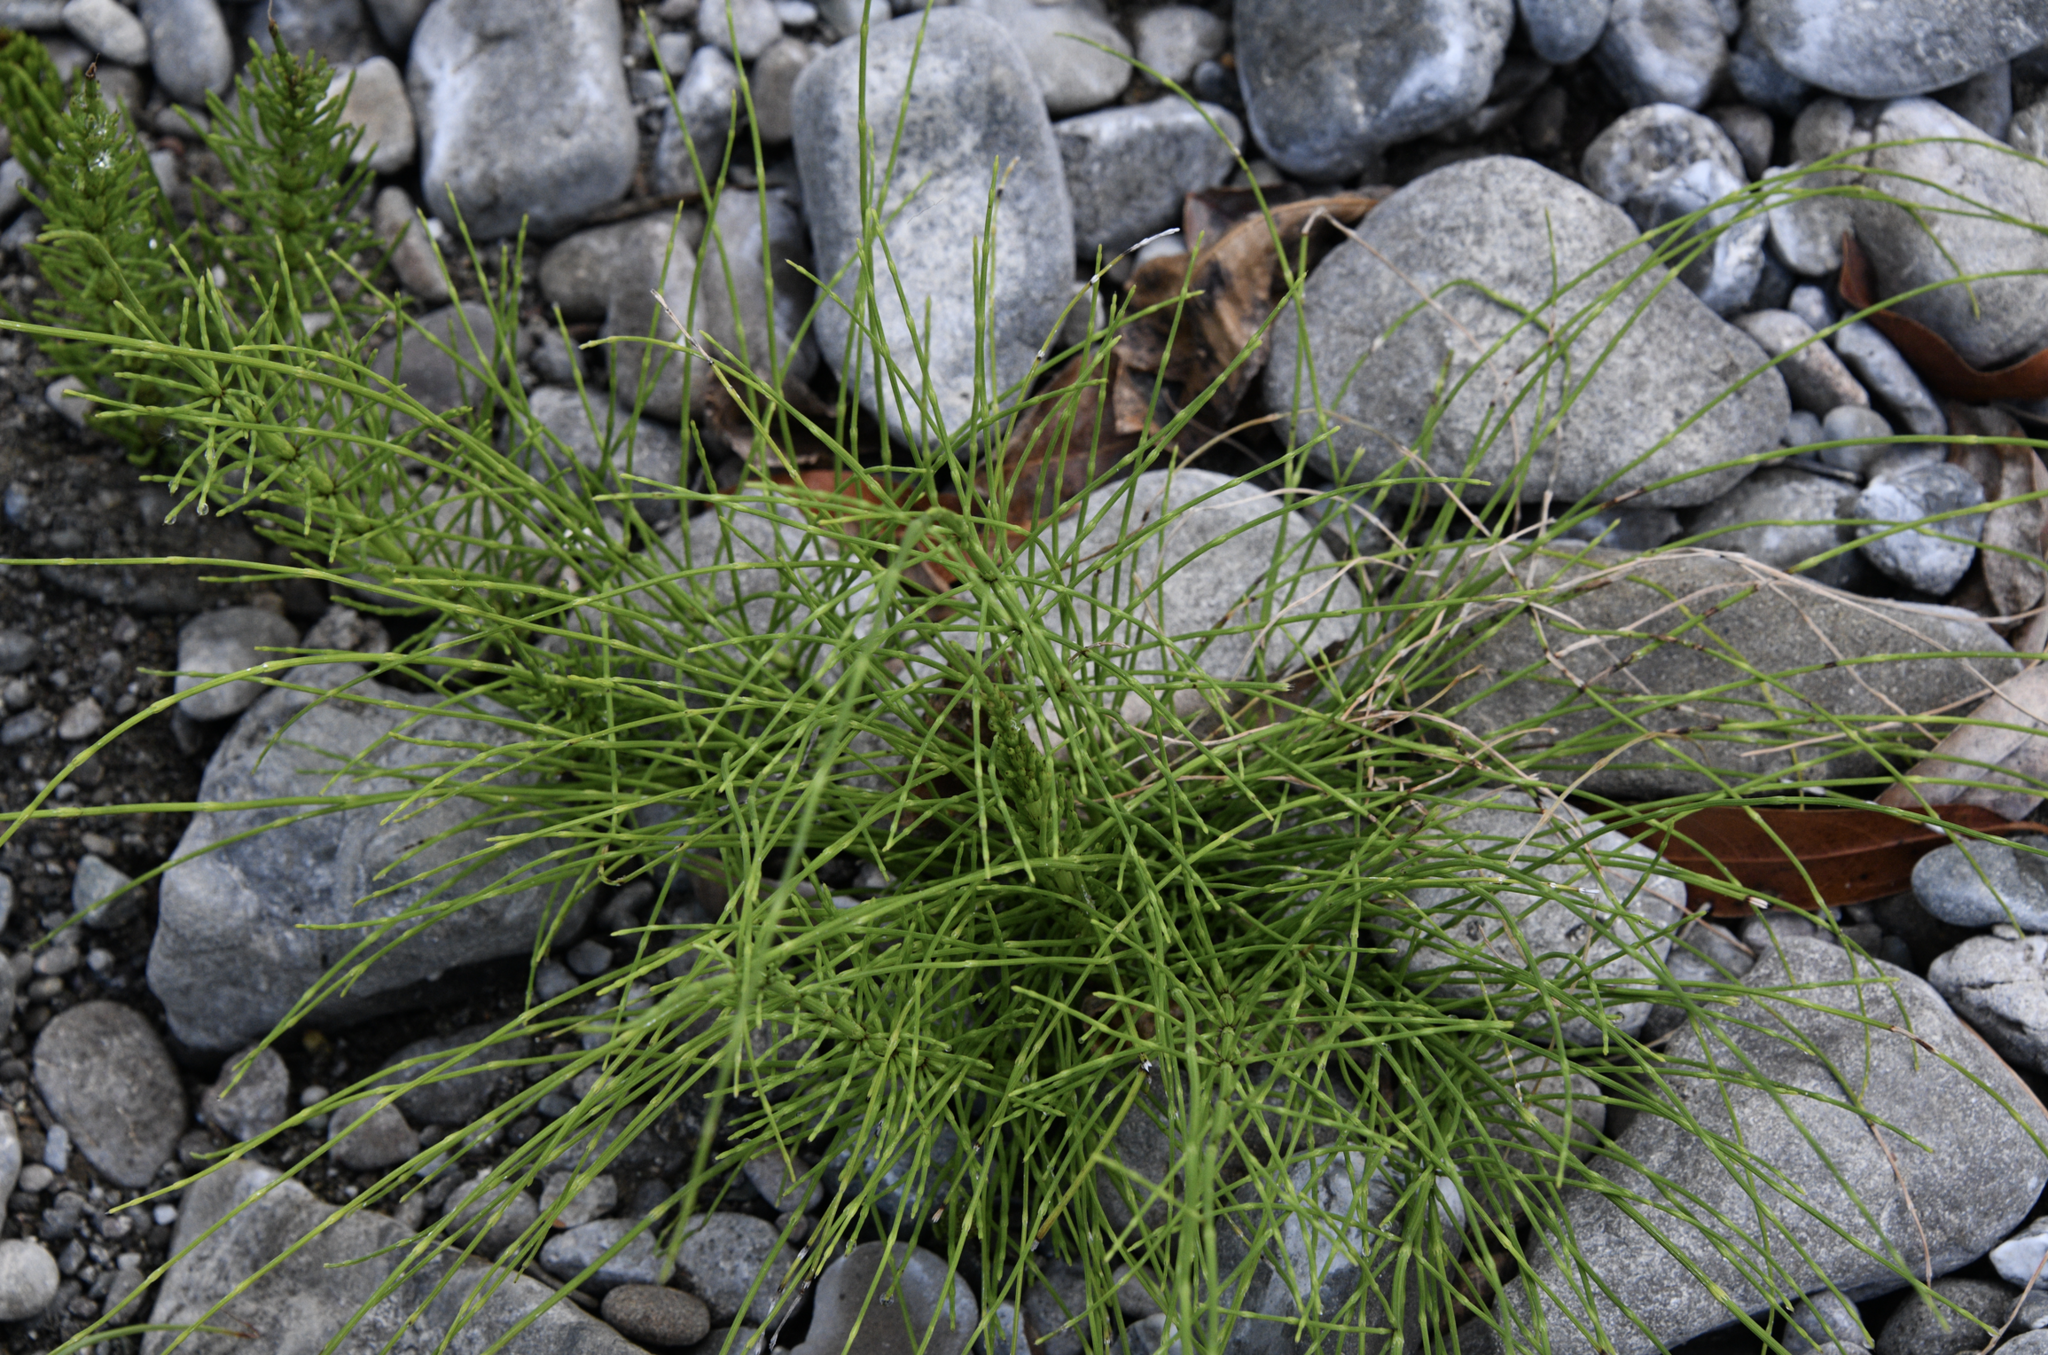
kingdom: Plantae
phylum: Tracheophyta
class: Polypodiopsida
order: Equisetales
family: Equisetaceae
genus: Equisetum
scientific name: Equisetum braunii
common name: Braun's horsetail
